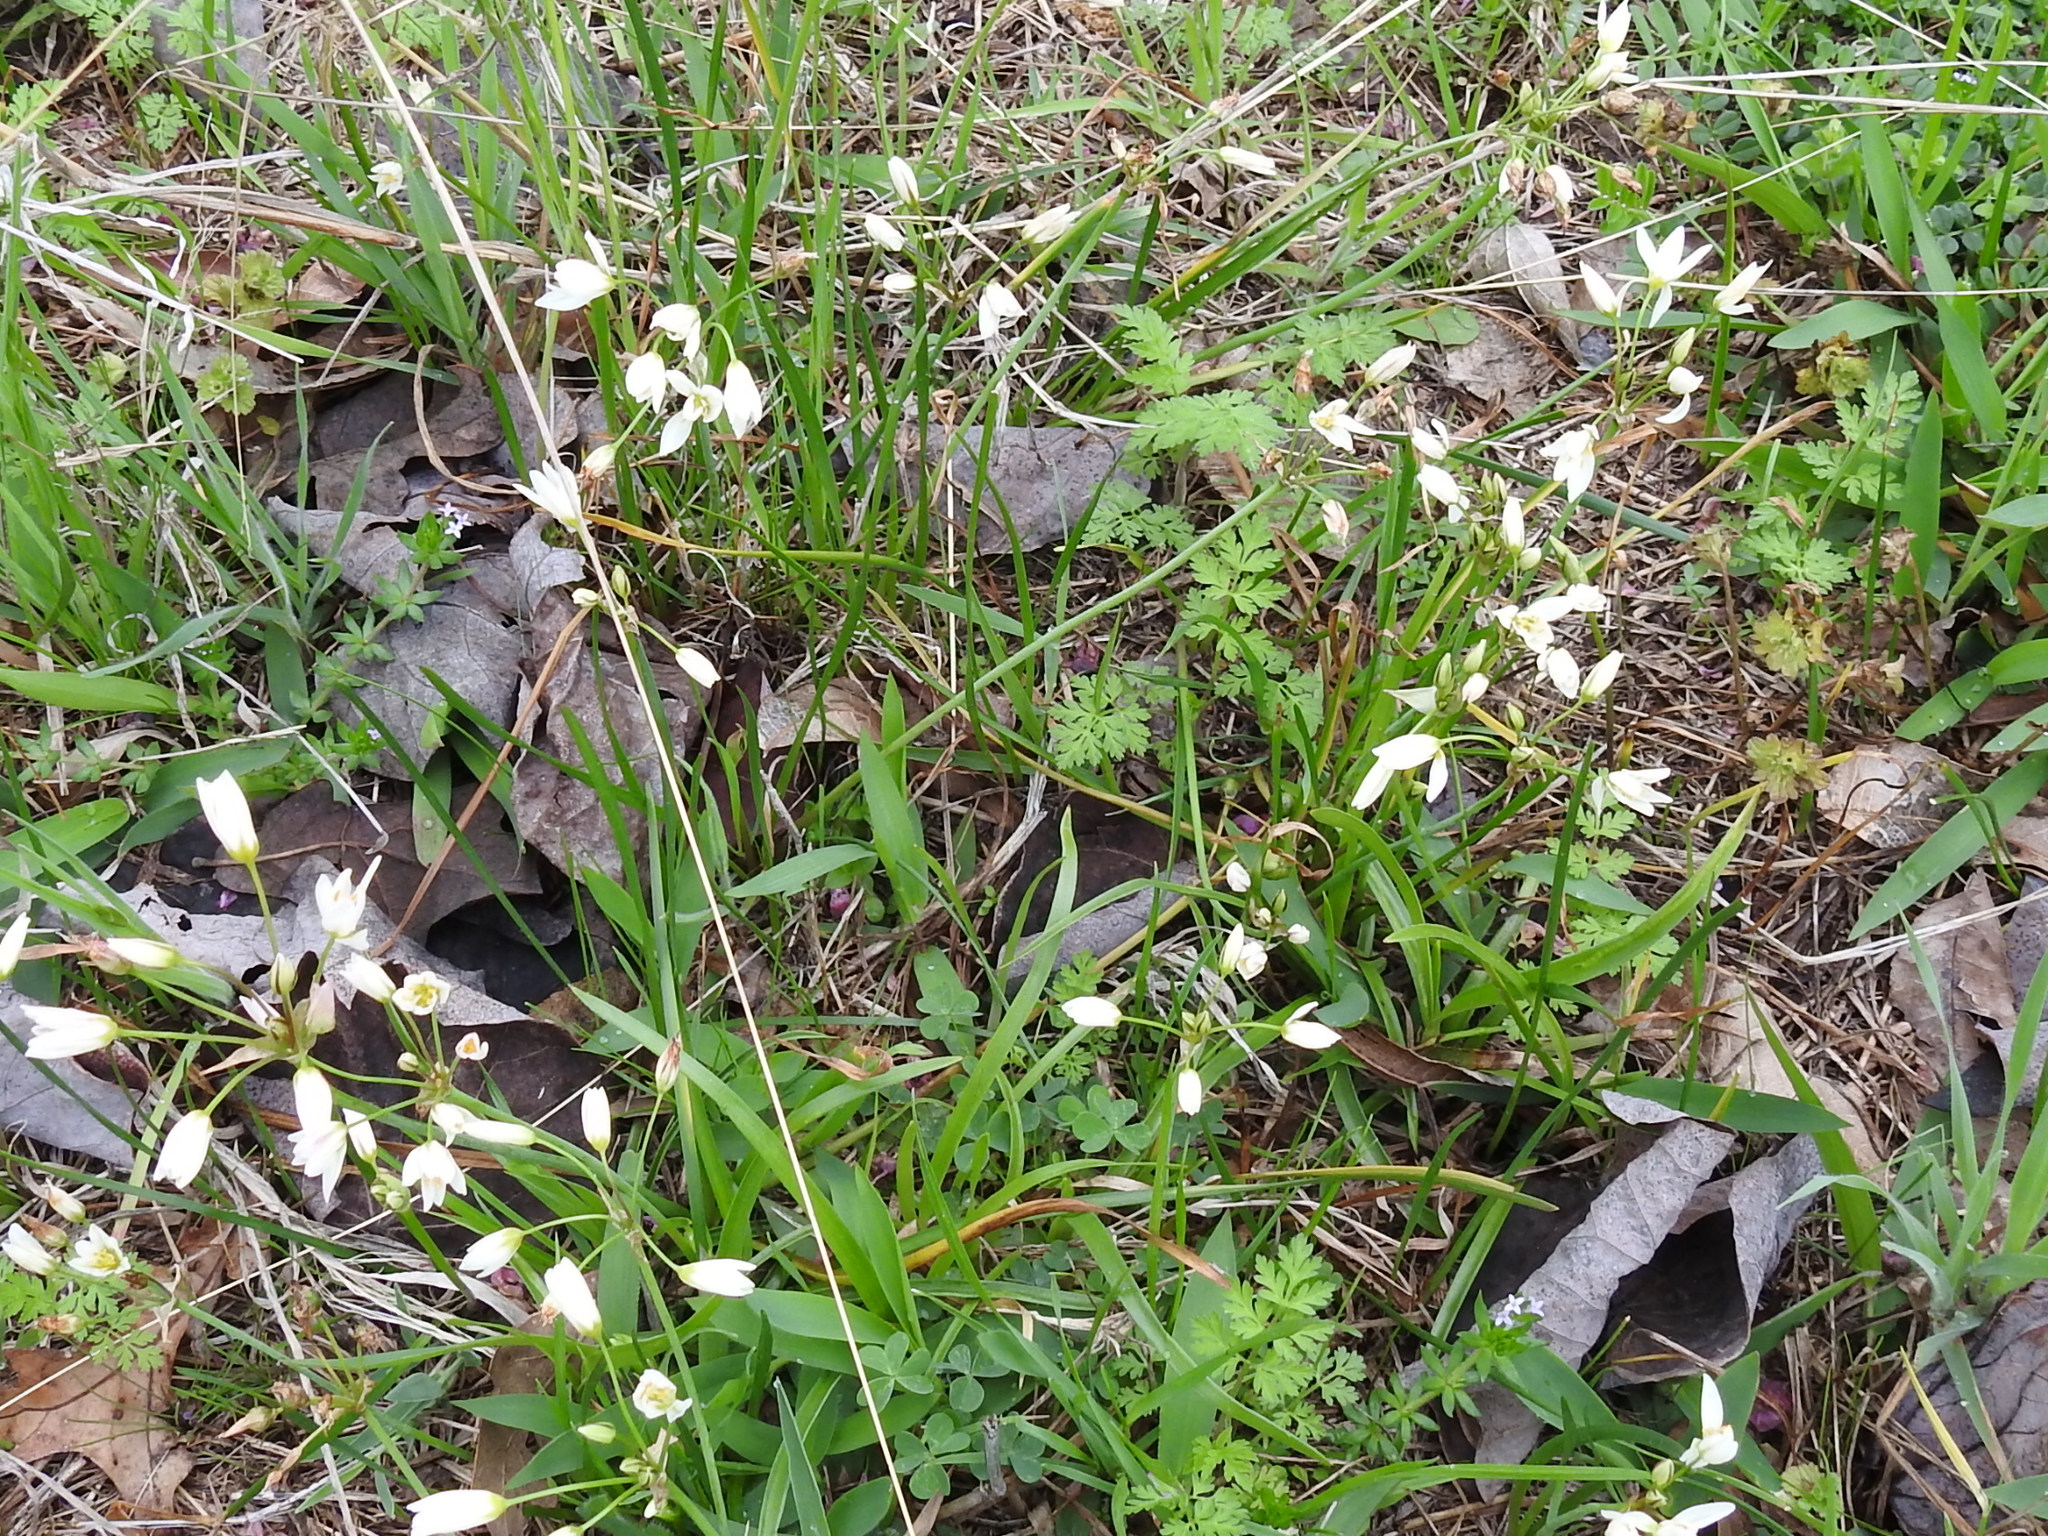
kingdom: Plantae
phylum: Tracheophyta
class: Liliopsida
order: Asparagales
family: Amaryllidaceae
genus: Nothoscordum
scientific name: Nothoscordum bivalve
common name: Crow-poison
